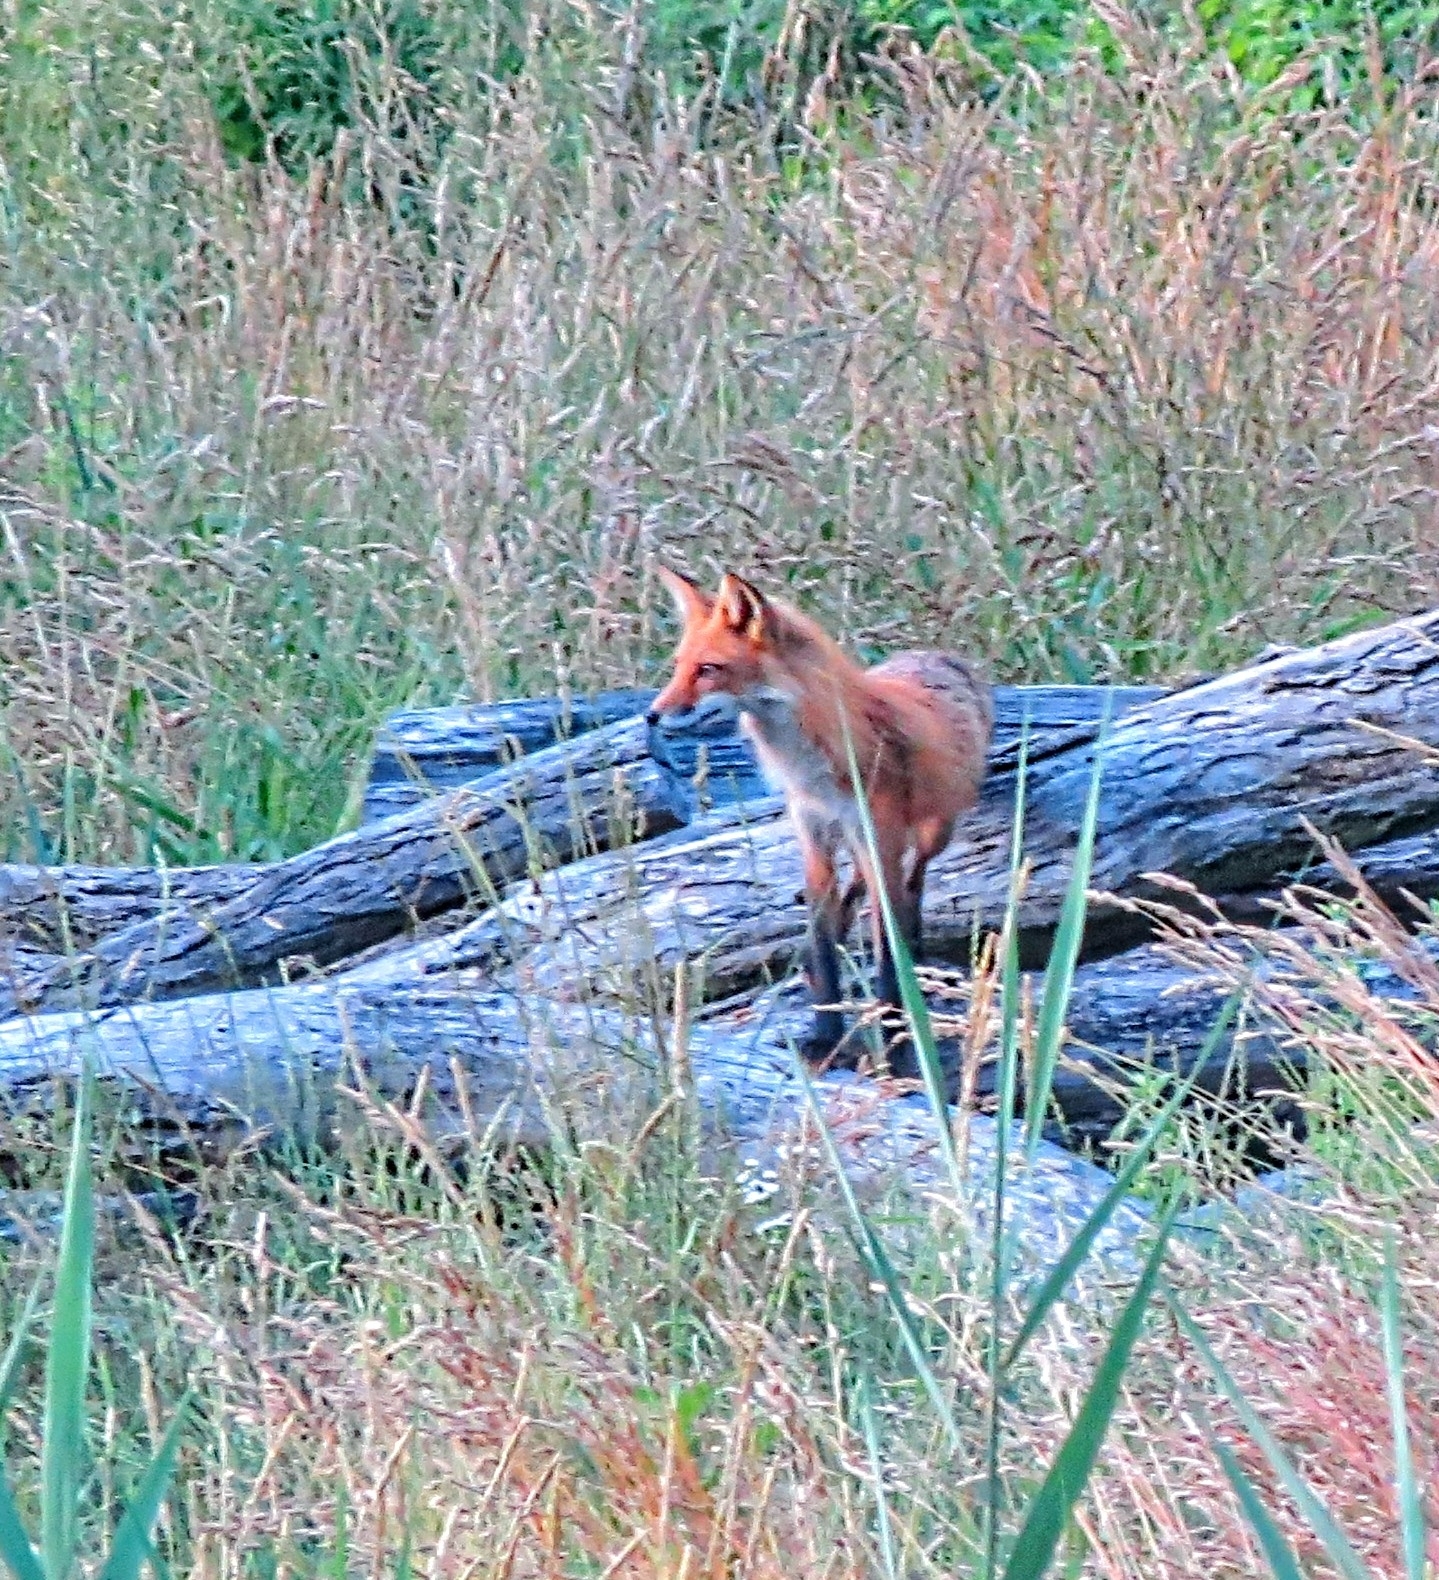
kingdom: Animalia
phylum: Chordata
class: Mammalia
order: Carnivora
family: Canidae
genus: Vulpes
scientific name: Vulpes vulpes
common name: Red fox
